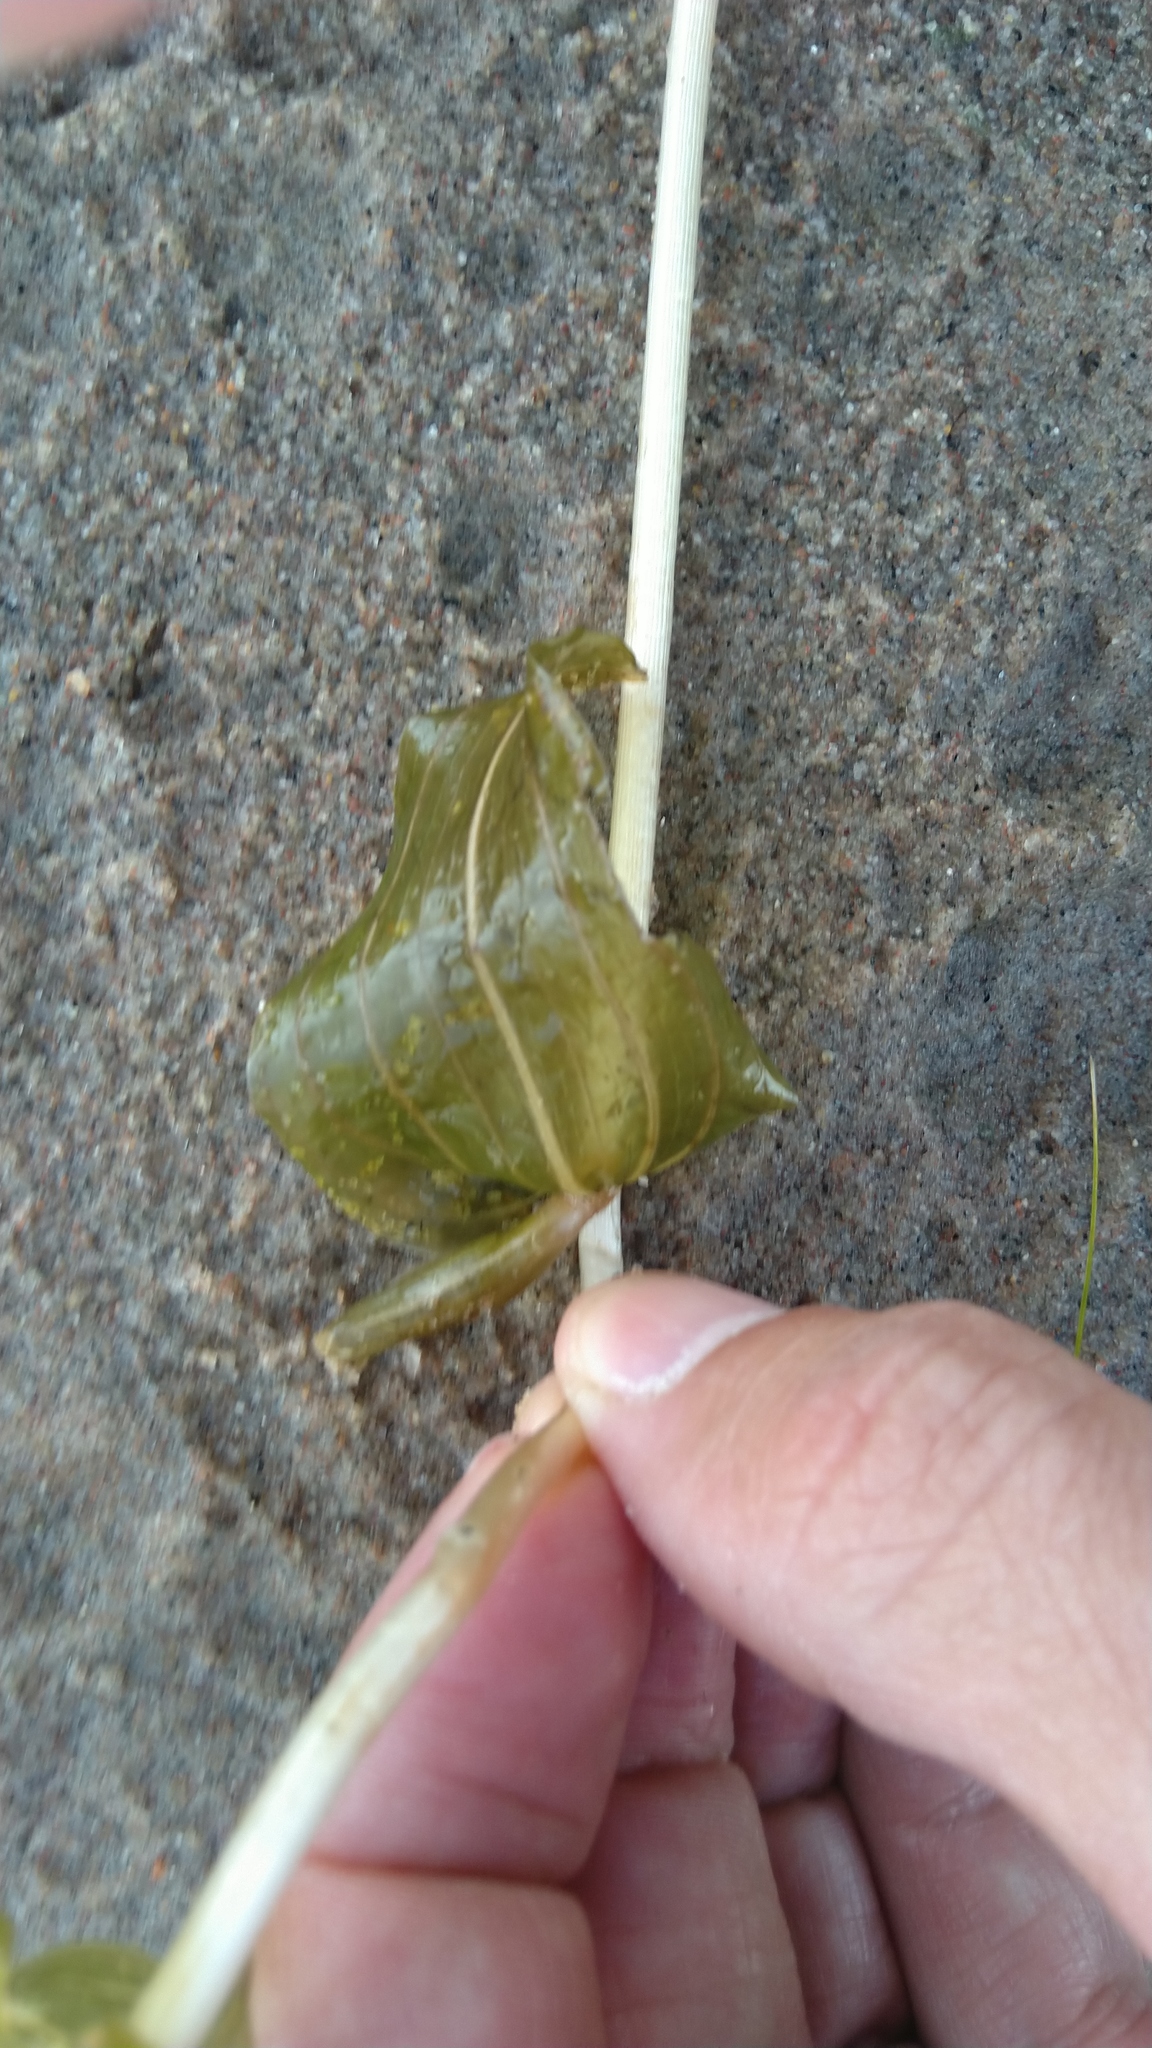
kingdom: Plantae
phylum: Tracheophyta
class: Liliopsida
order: Alismatales
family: Potamogetonaceae
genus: Potamogeton
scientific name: Potamogeton perfoliatus
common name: Perfoliate pondweed
